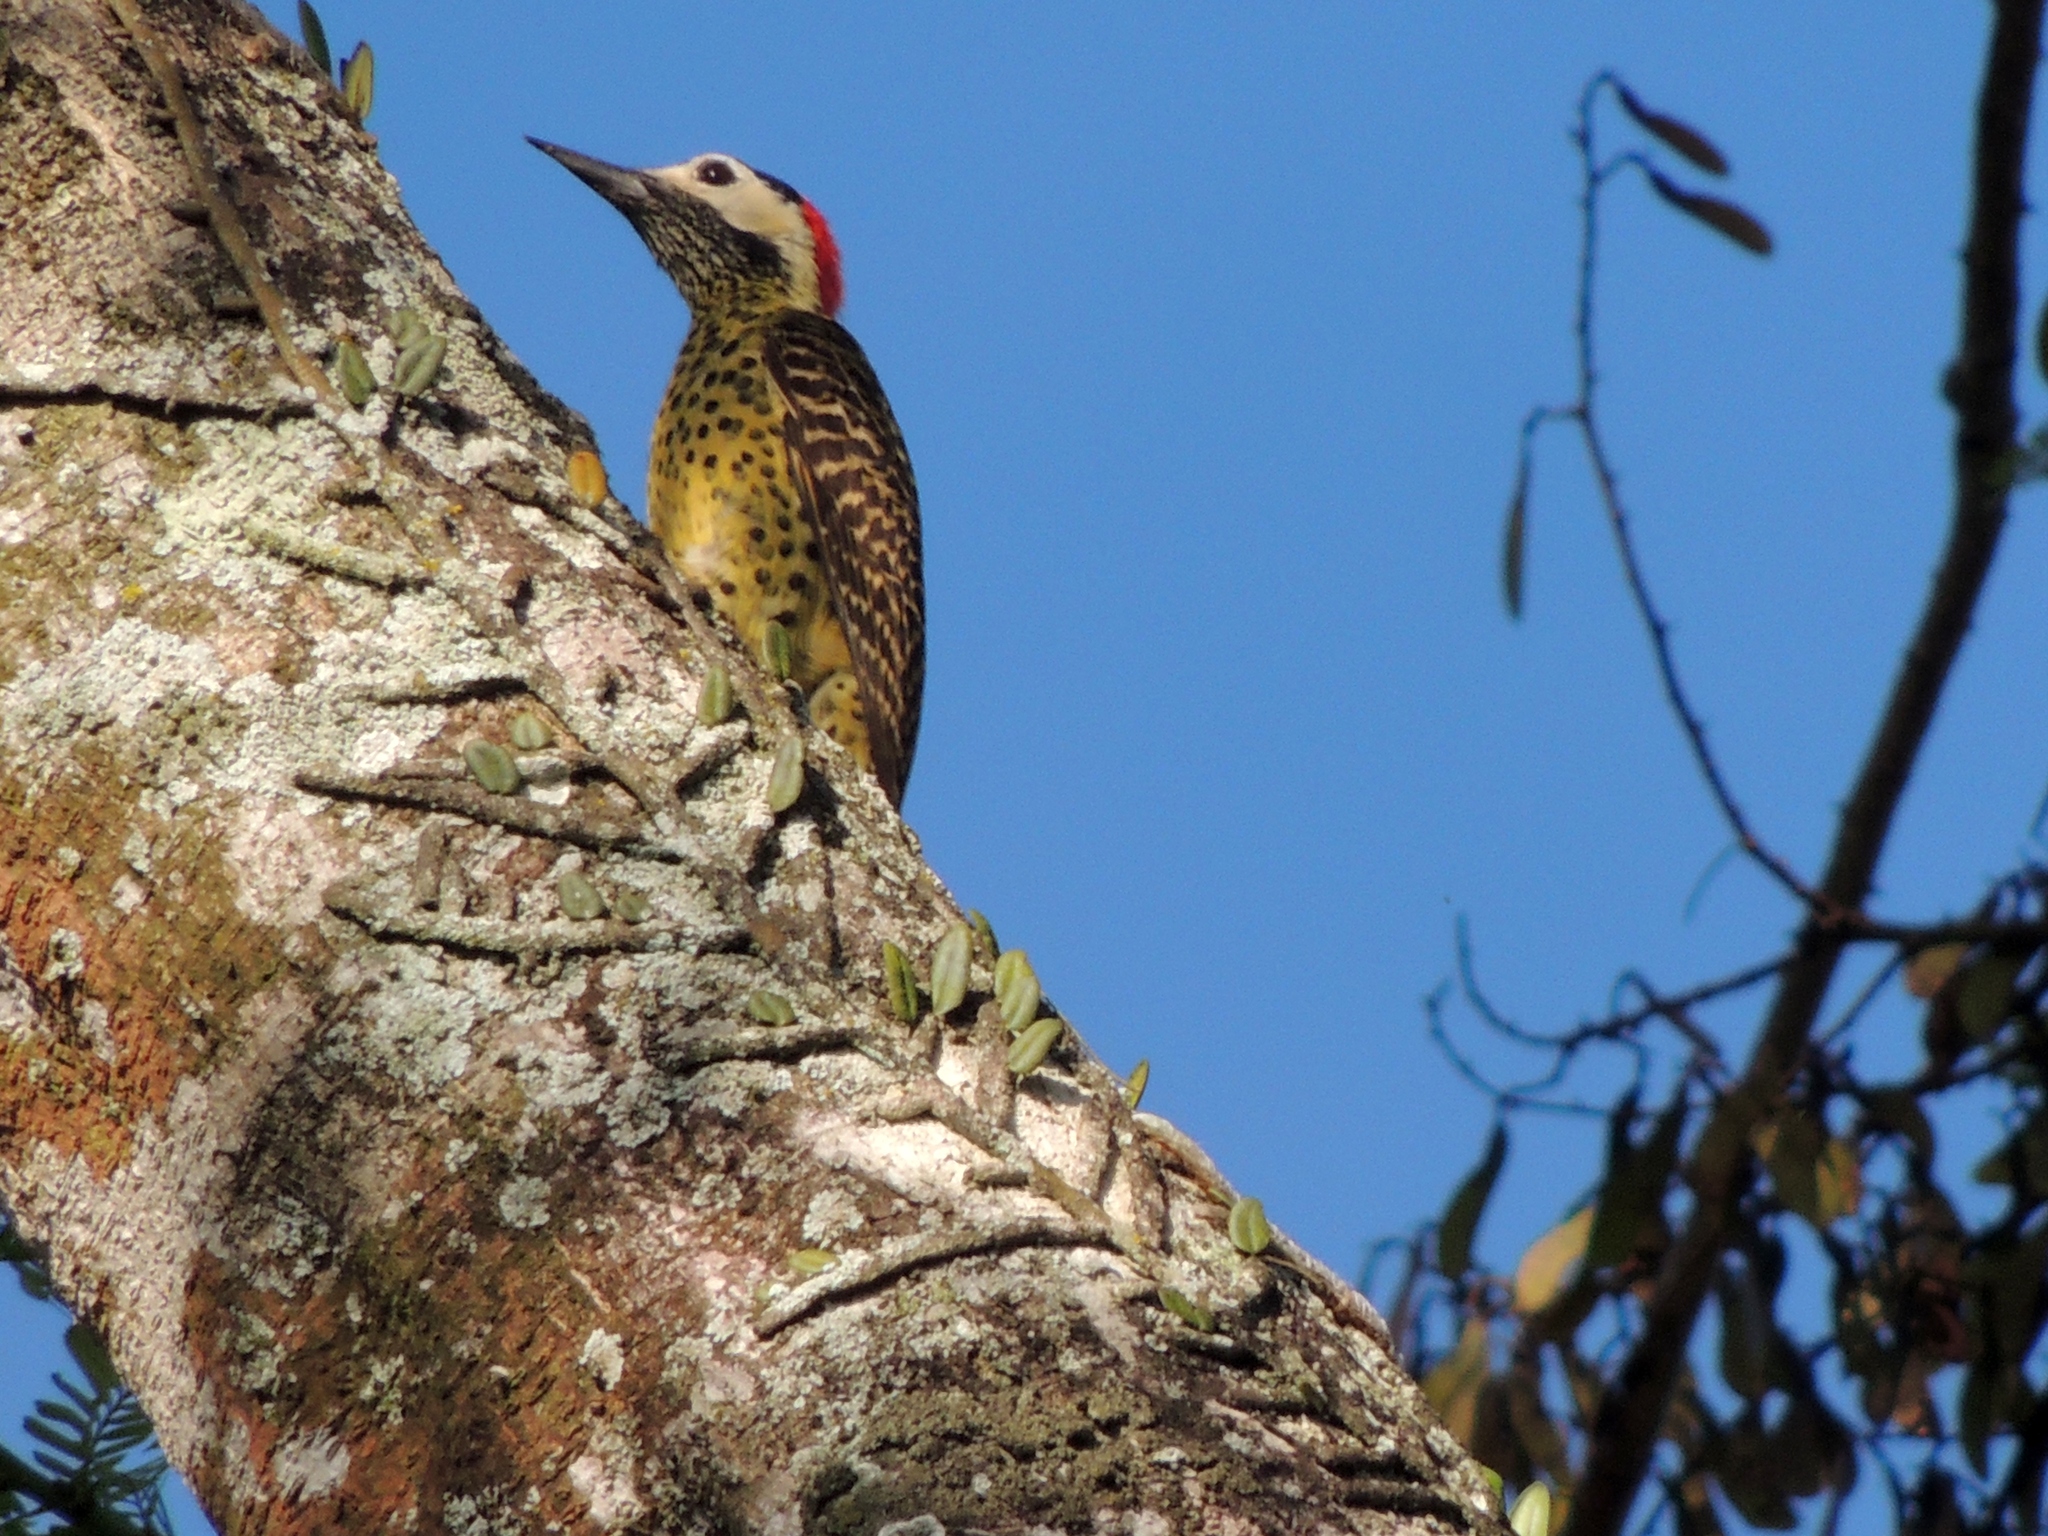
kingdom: Animalia
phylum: Chordata
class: Aves
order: Piciformes
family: Picidae
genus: Colaptes
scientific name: Colaptes melanochloros
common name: Green-barred woodpecker
